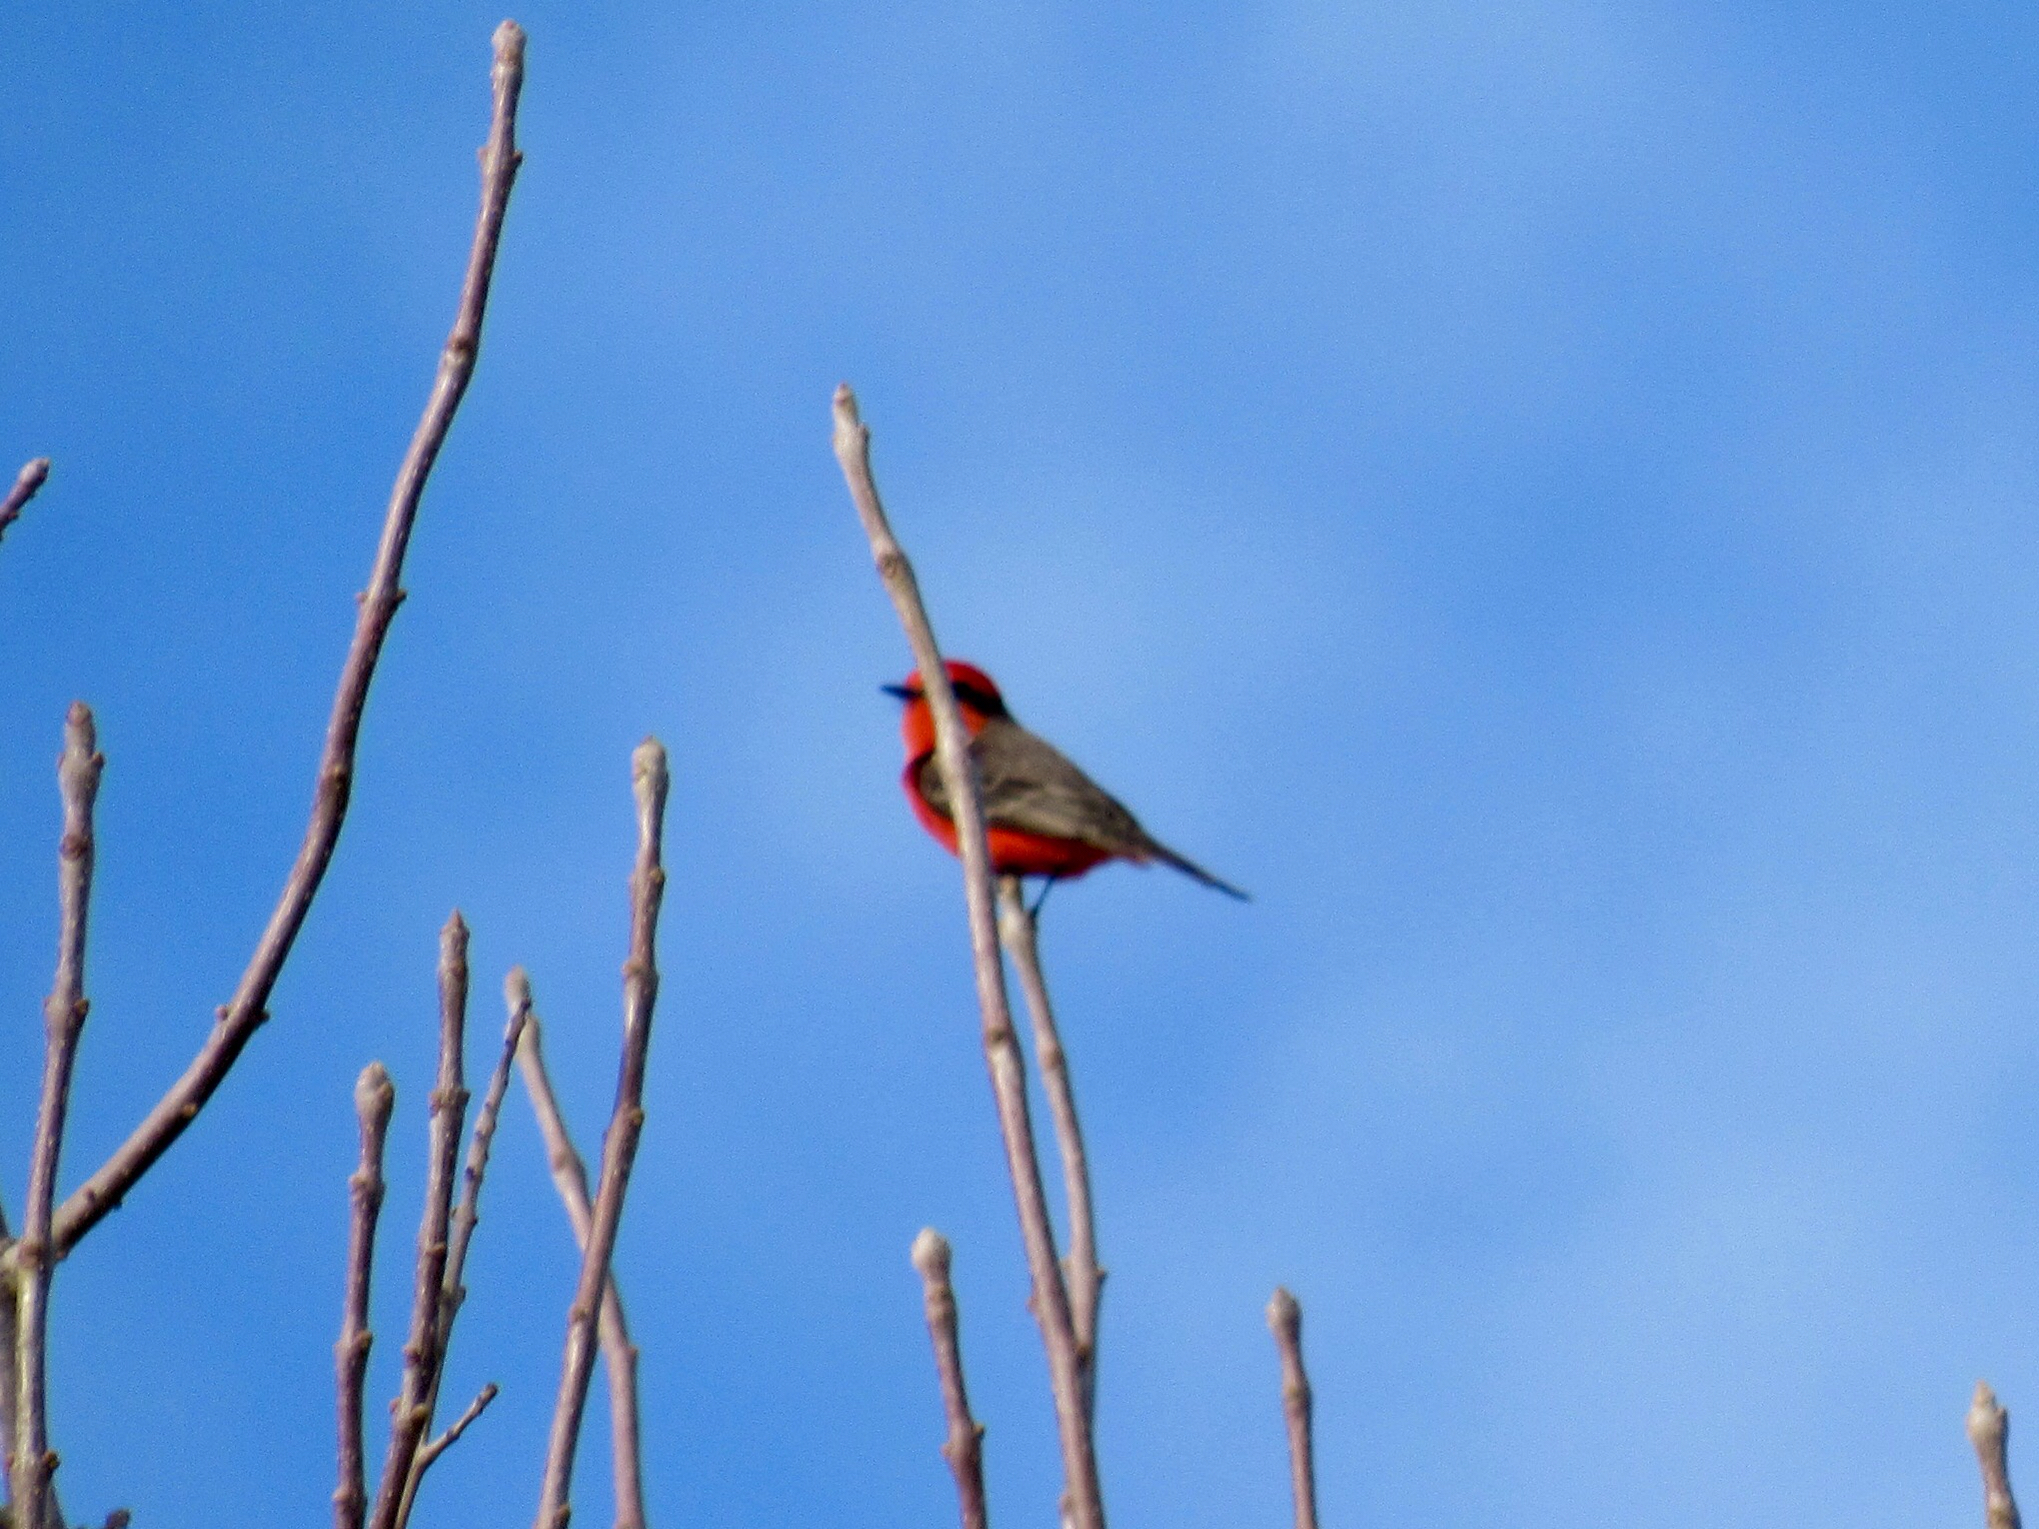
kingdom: Animalia
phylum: Chordata
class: Aves
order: Passeriformes
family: Tyrannidae
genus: Pyrocephalus
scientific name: Pyrocephalus rubinus
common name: Vermilion flycatcher
